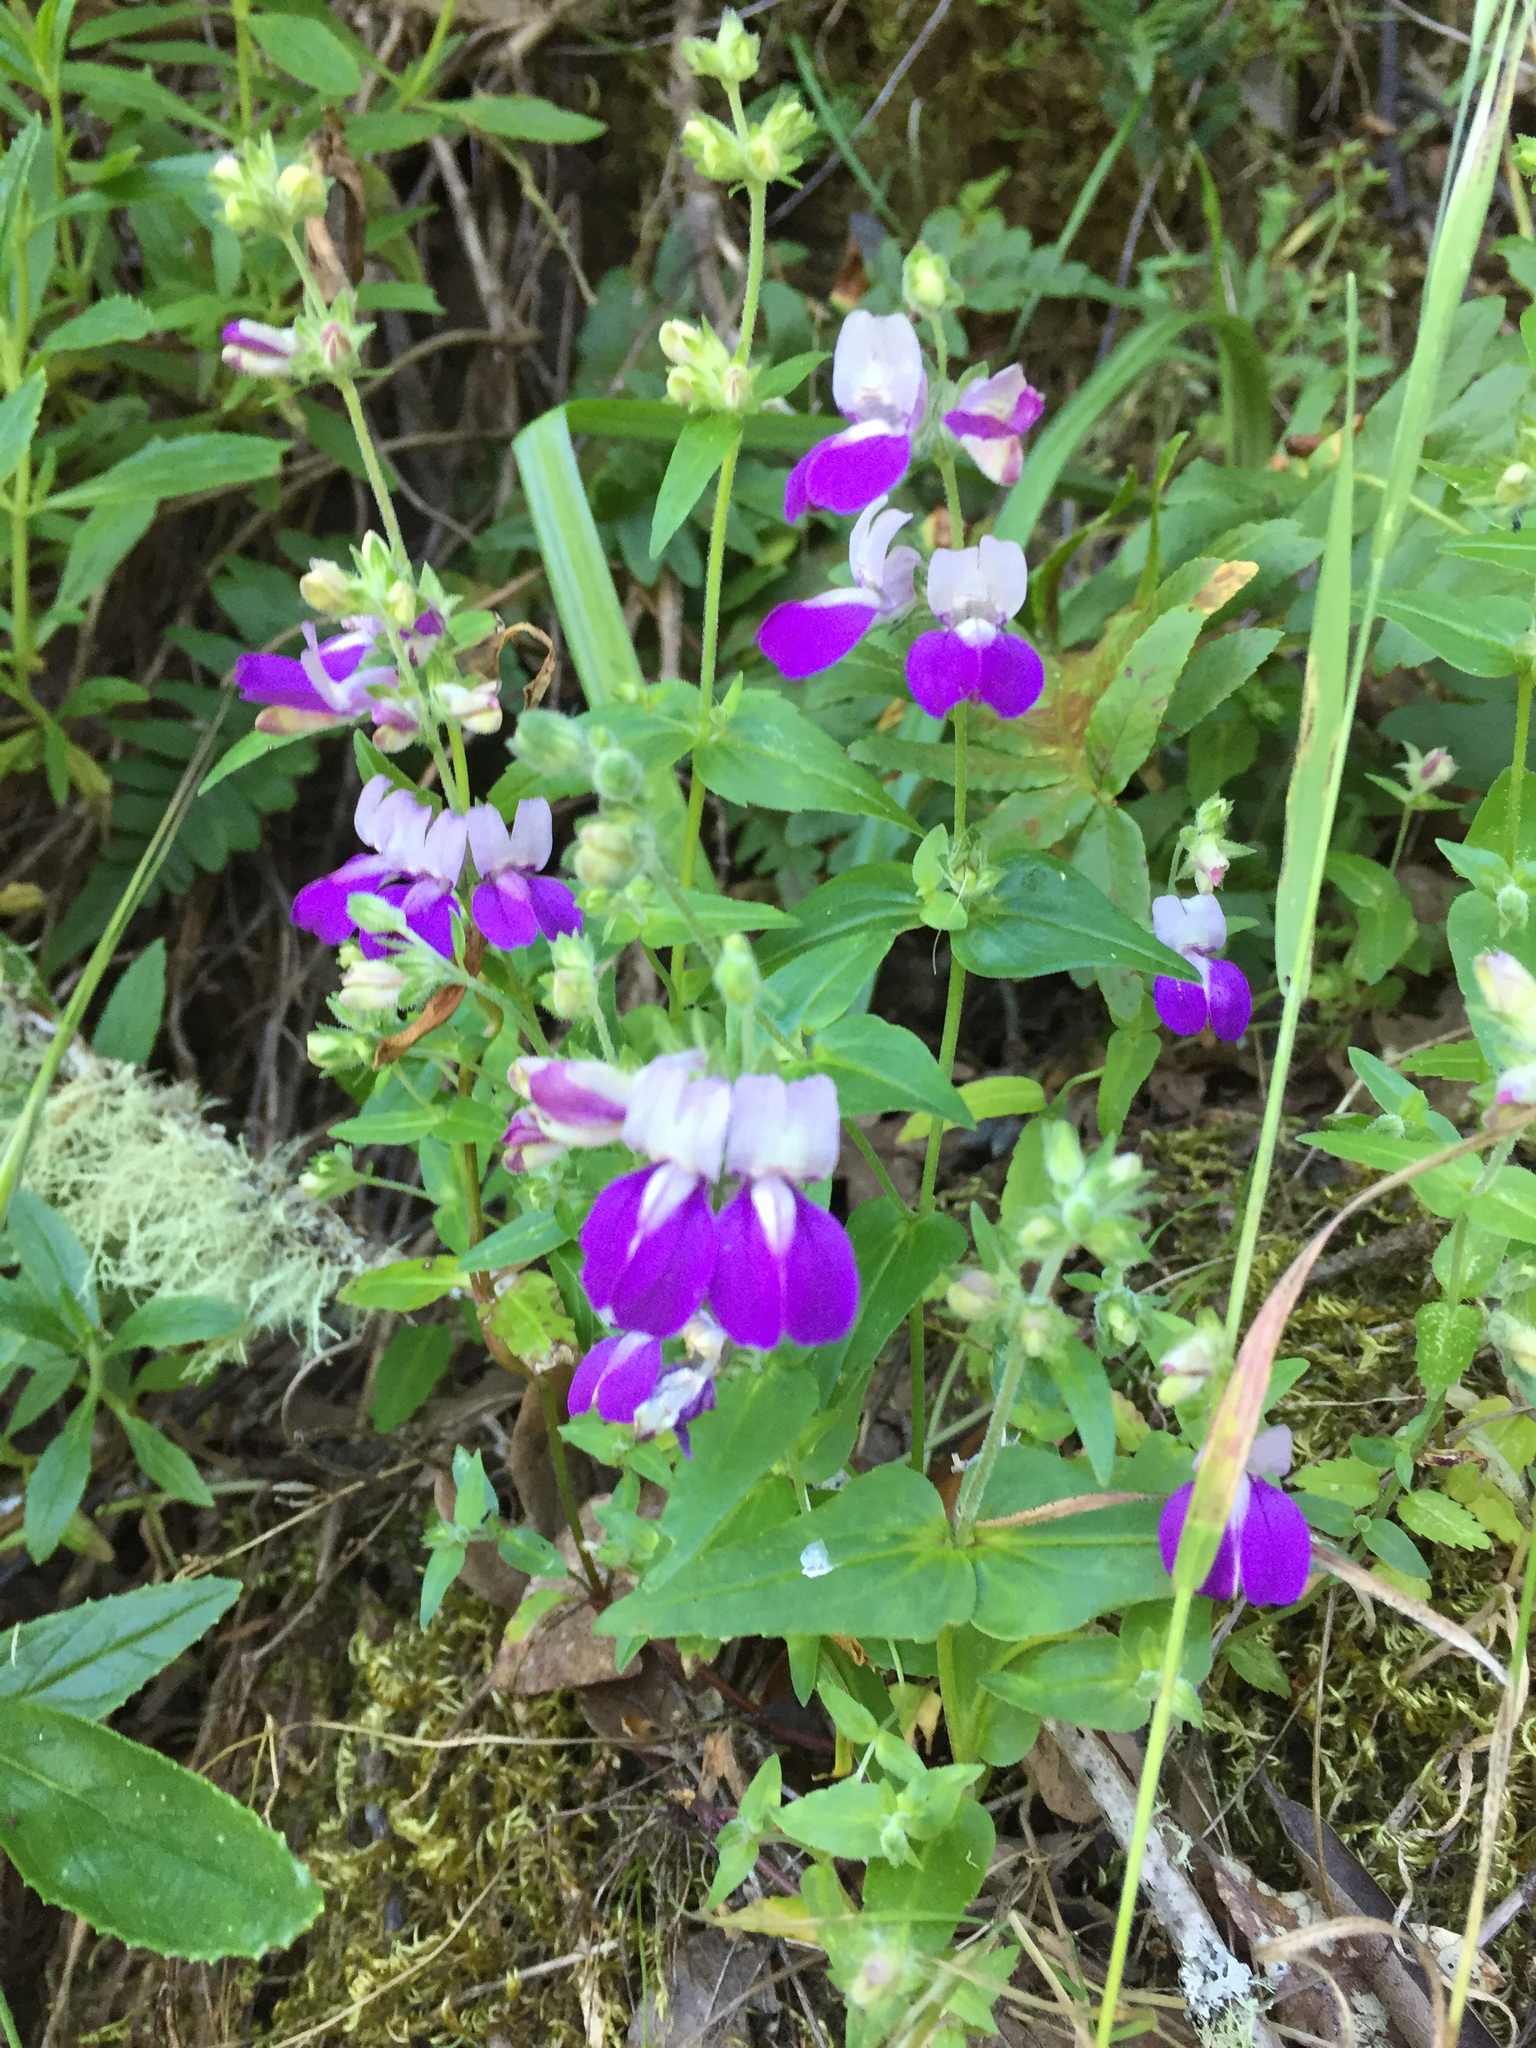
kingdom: Plantae
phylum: Tracheophyta
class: Magnoliopsida
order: Lamiales
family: Plantaginaceae
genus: Collinsia
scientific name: Collinsia heterophylla
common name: Chinese-houses
